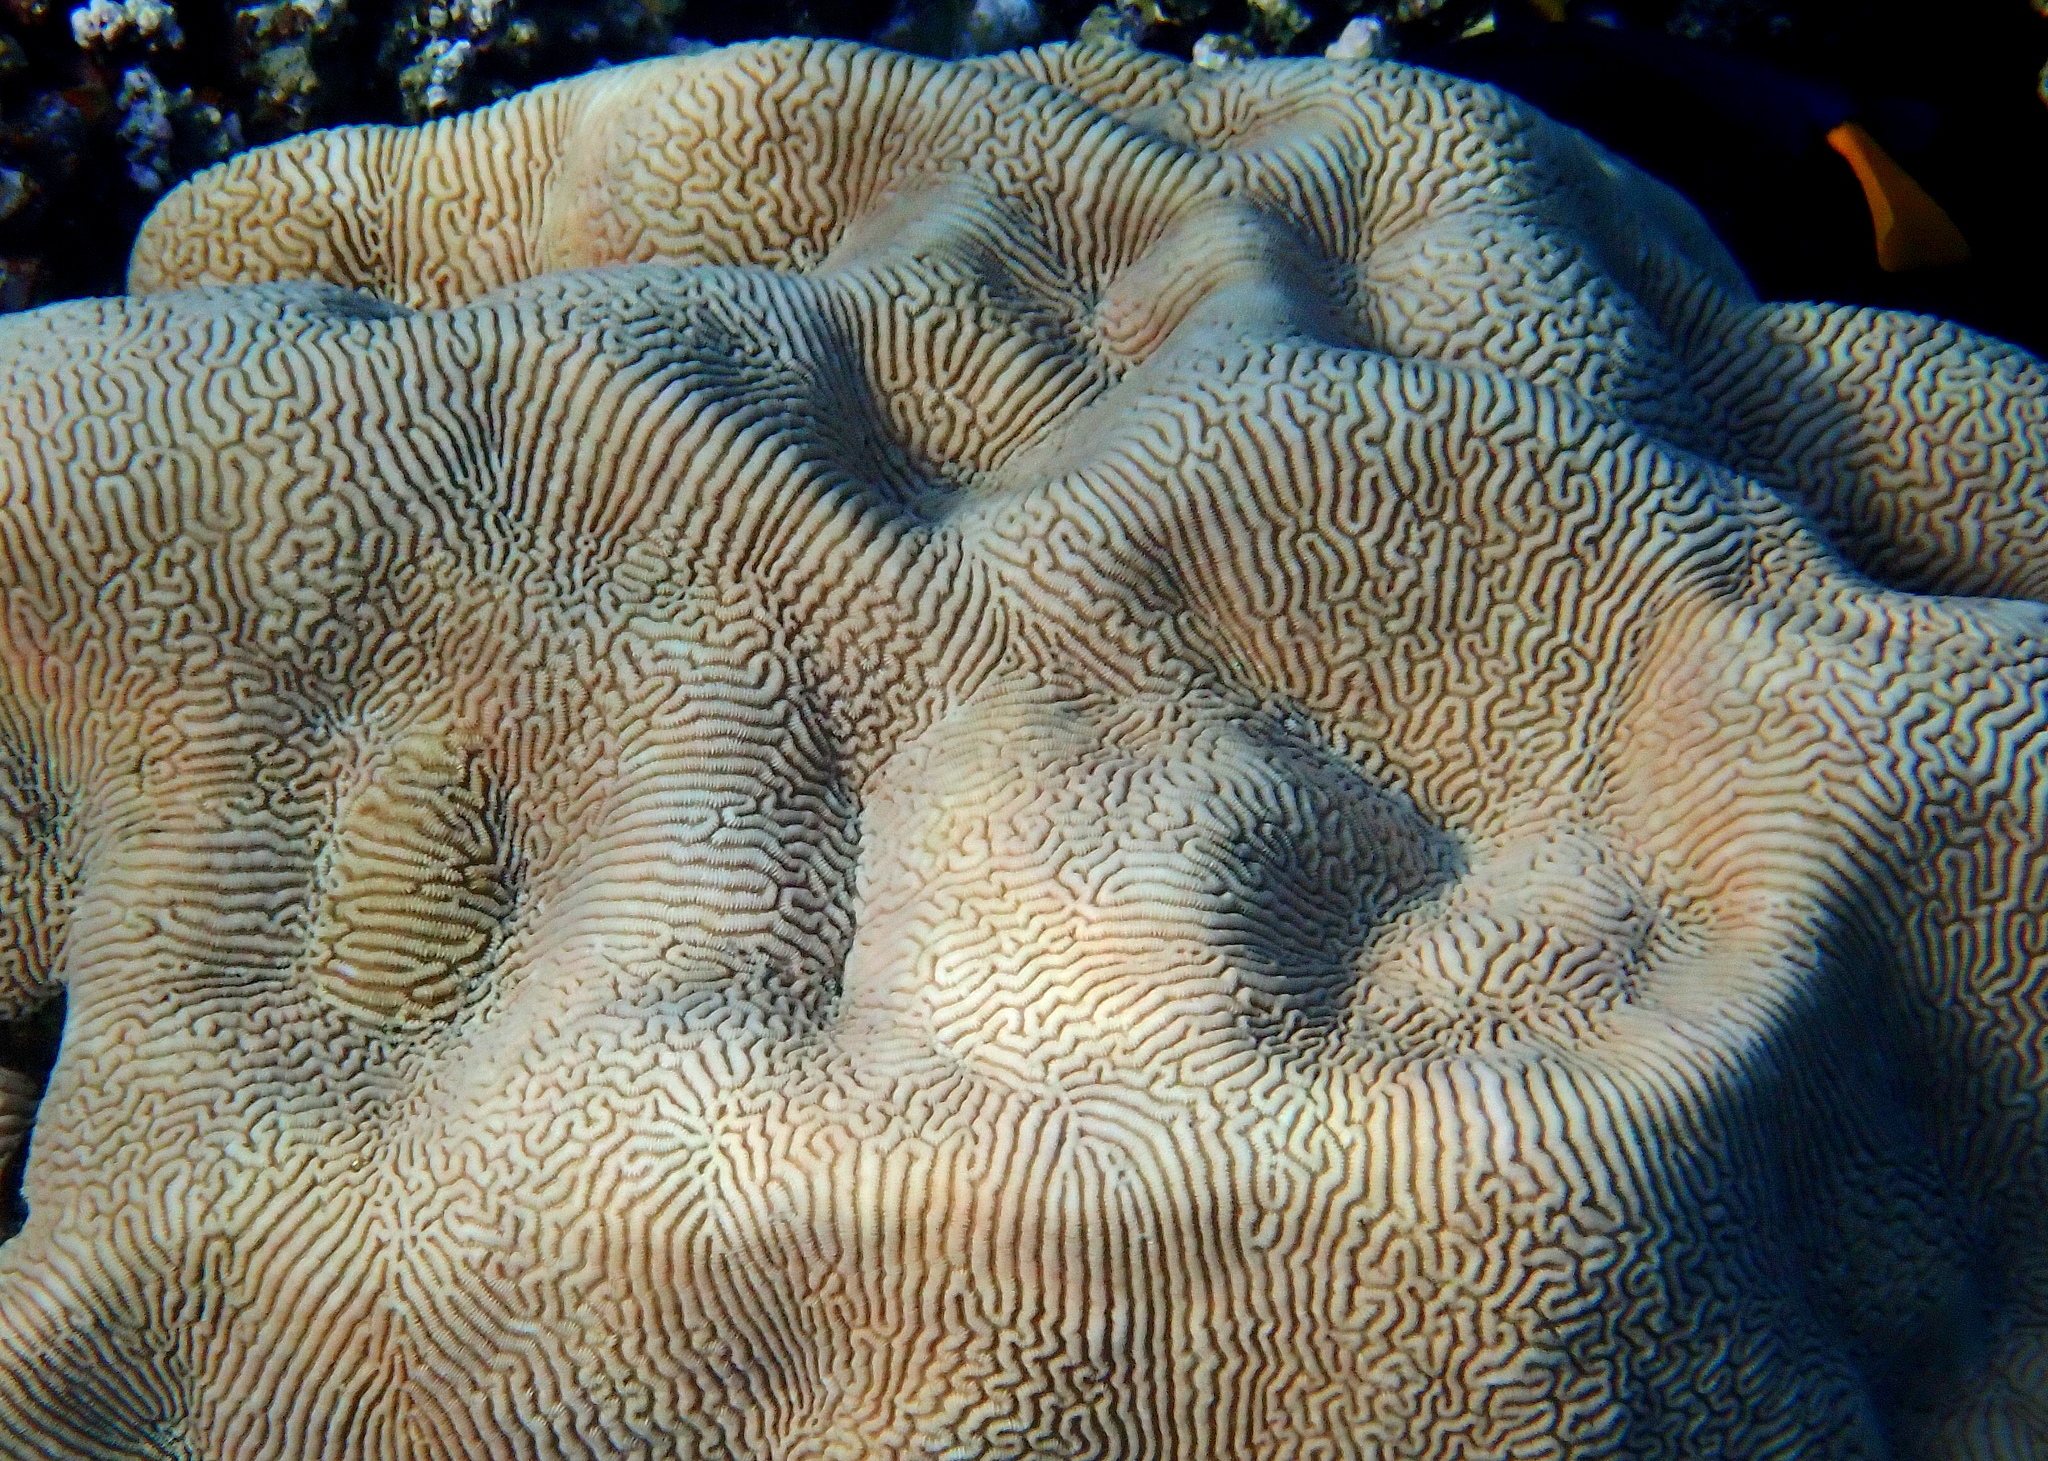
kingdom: Animalia
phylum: Cnidaria
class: Anthozoa
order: Scleractinia
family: Merulinidae
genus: Leptoria
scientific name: Leptoria phrygia
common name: Least valley coral
